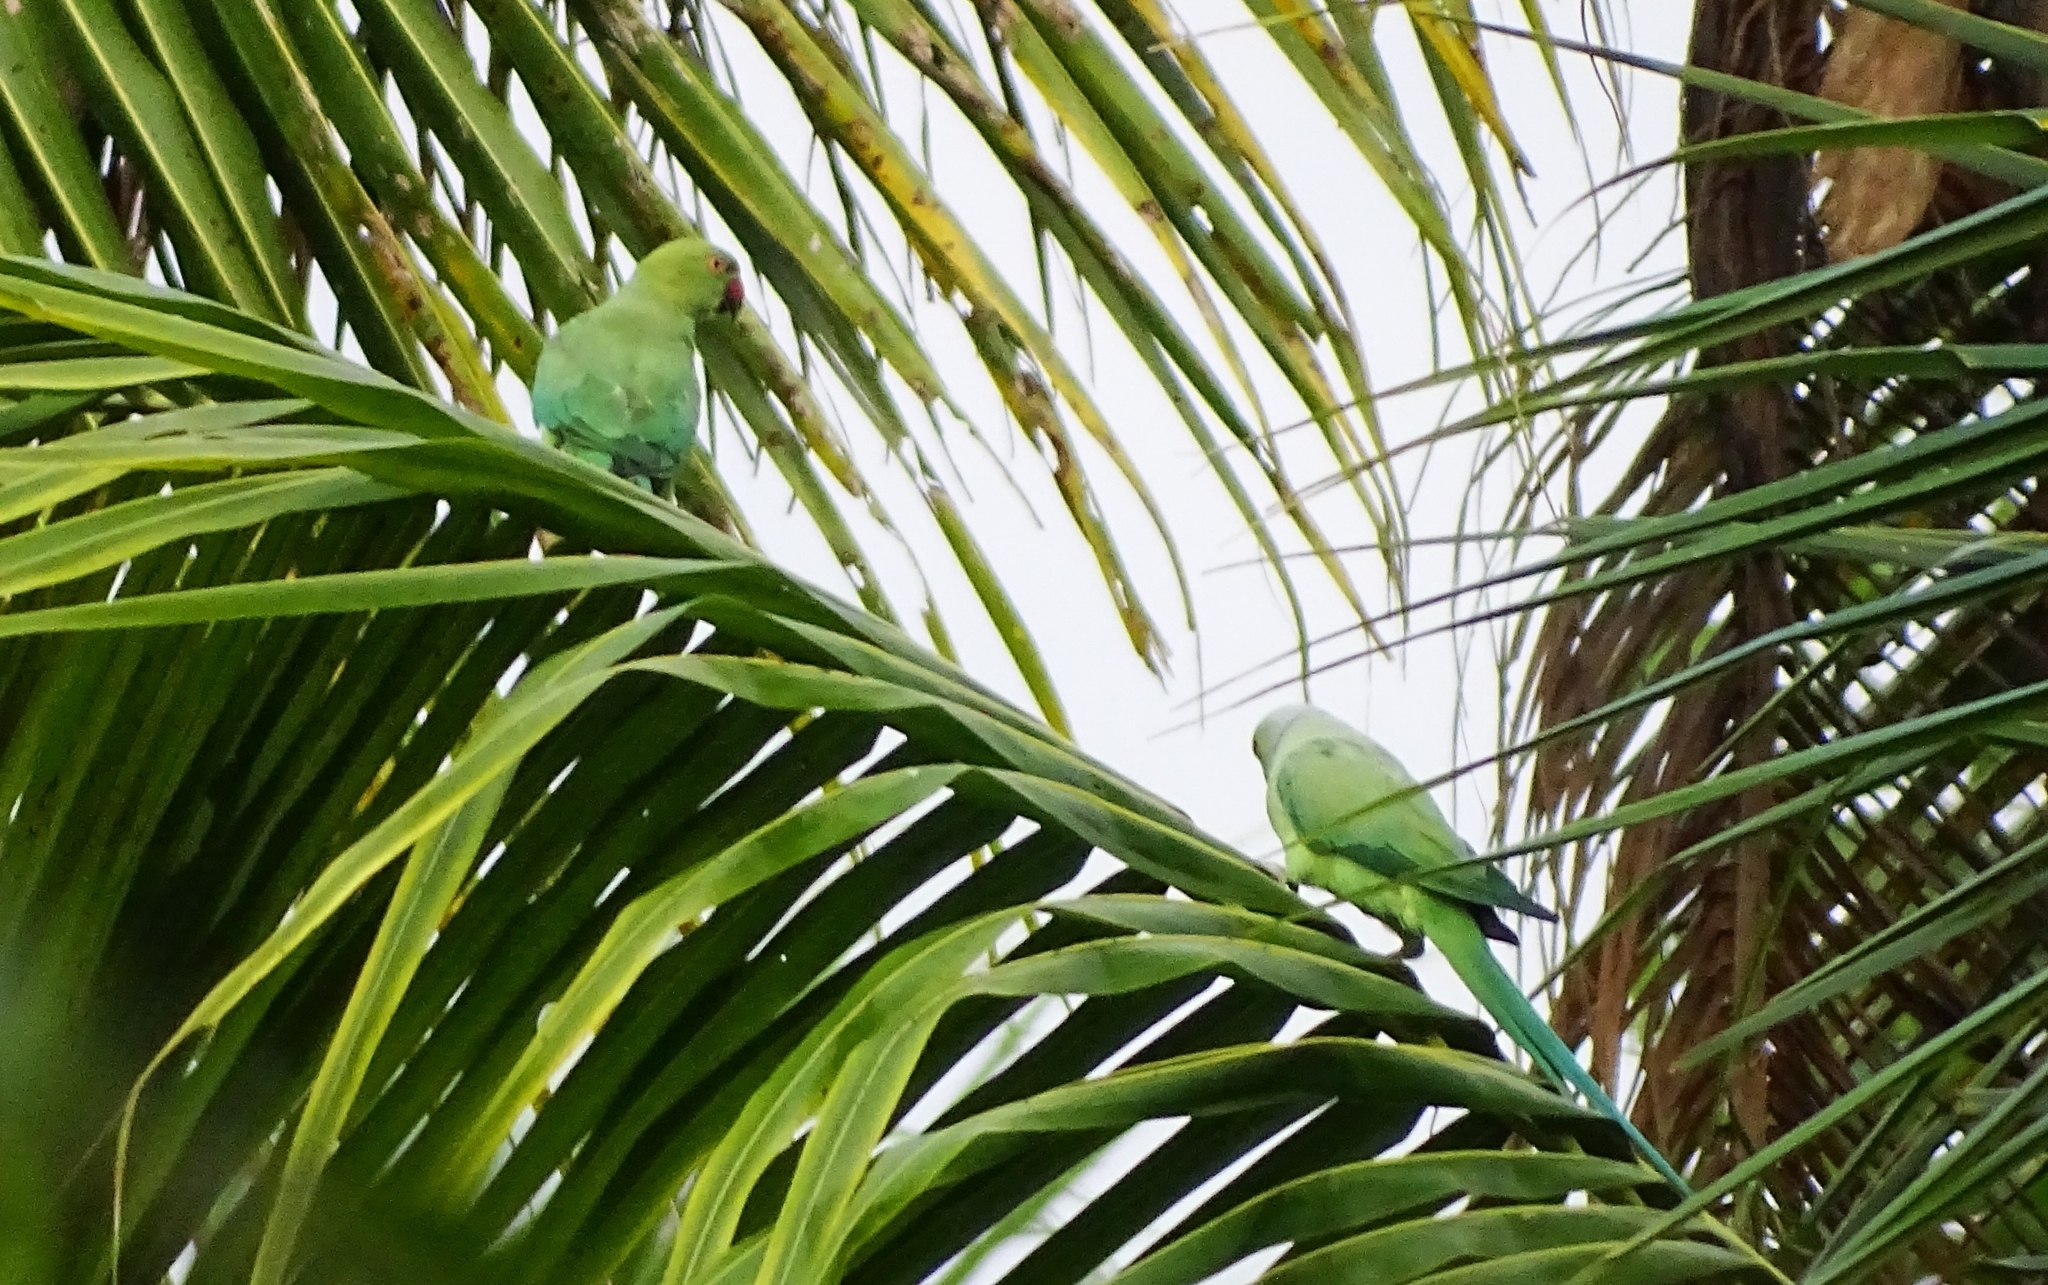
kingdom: Animalia
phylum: Chordata
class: Aves
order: Psittaciformes
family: Psittacidae
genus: Psittacula
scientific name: Psittacula krameri
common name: Rose-ringed parakeet
